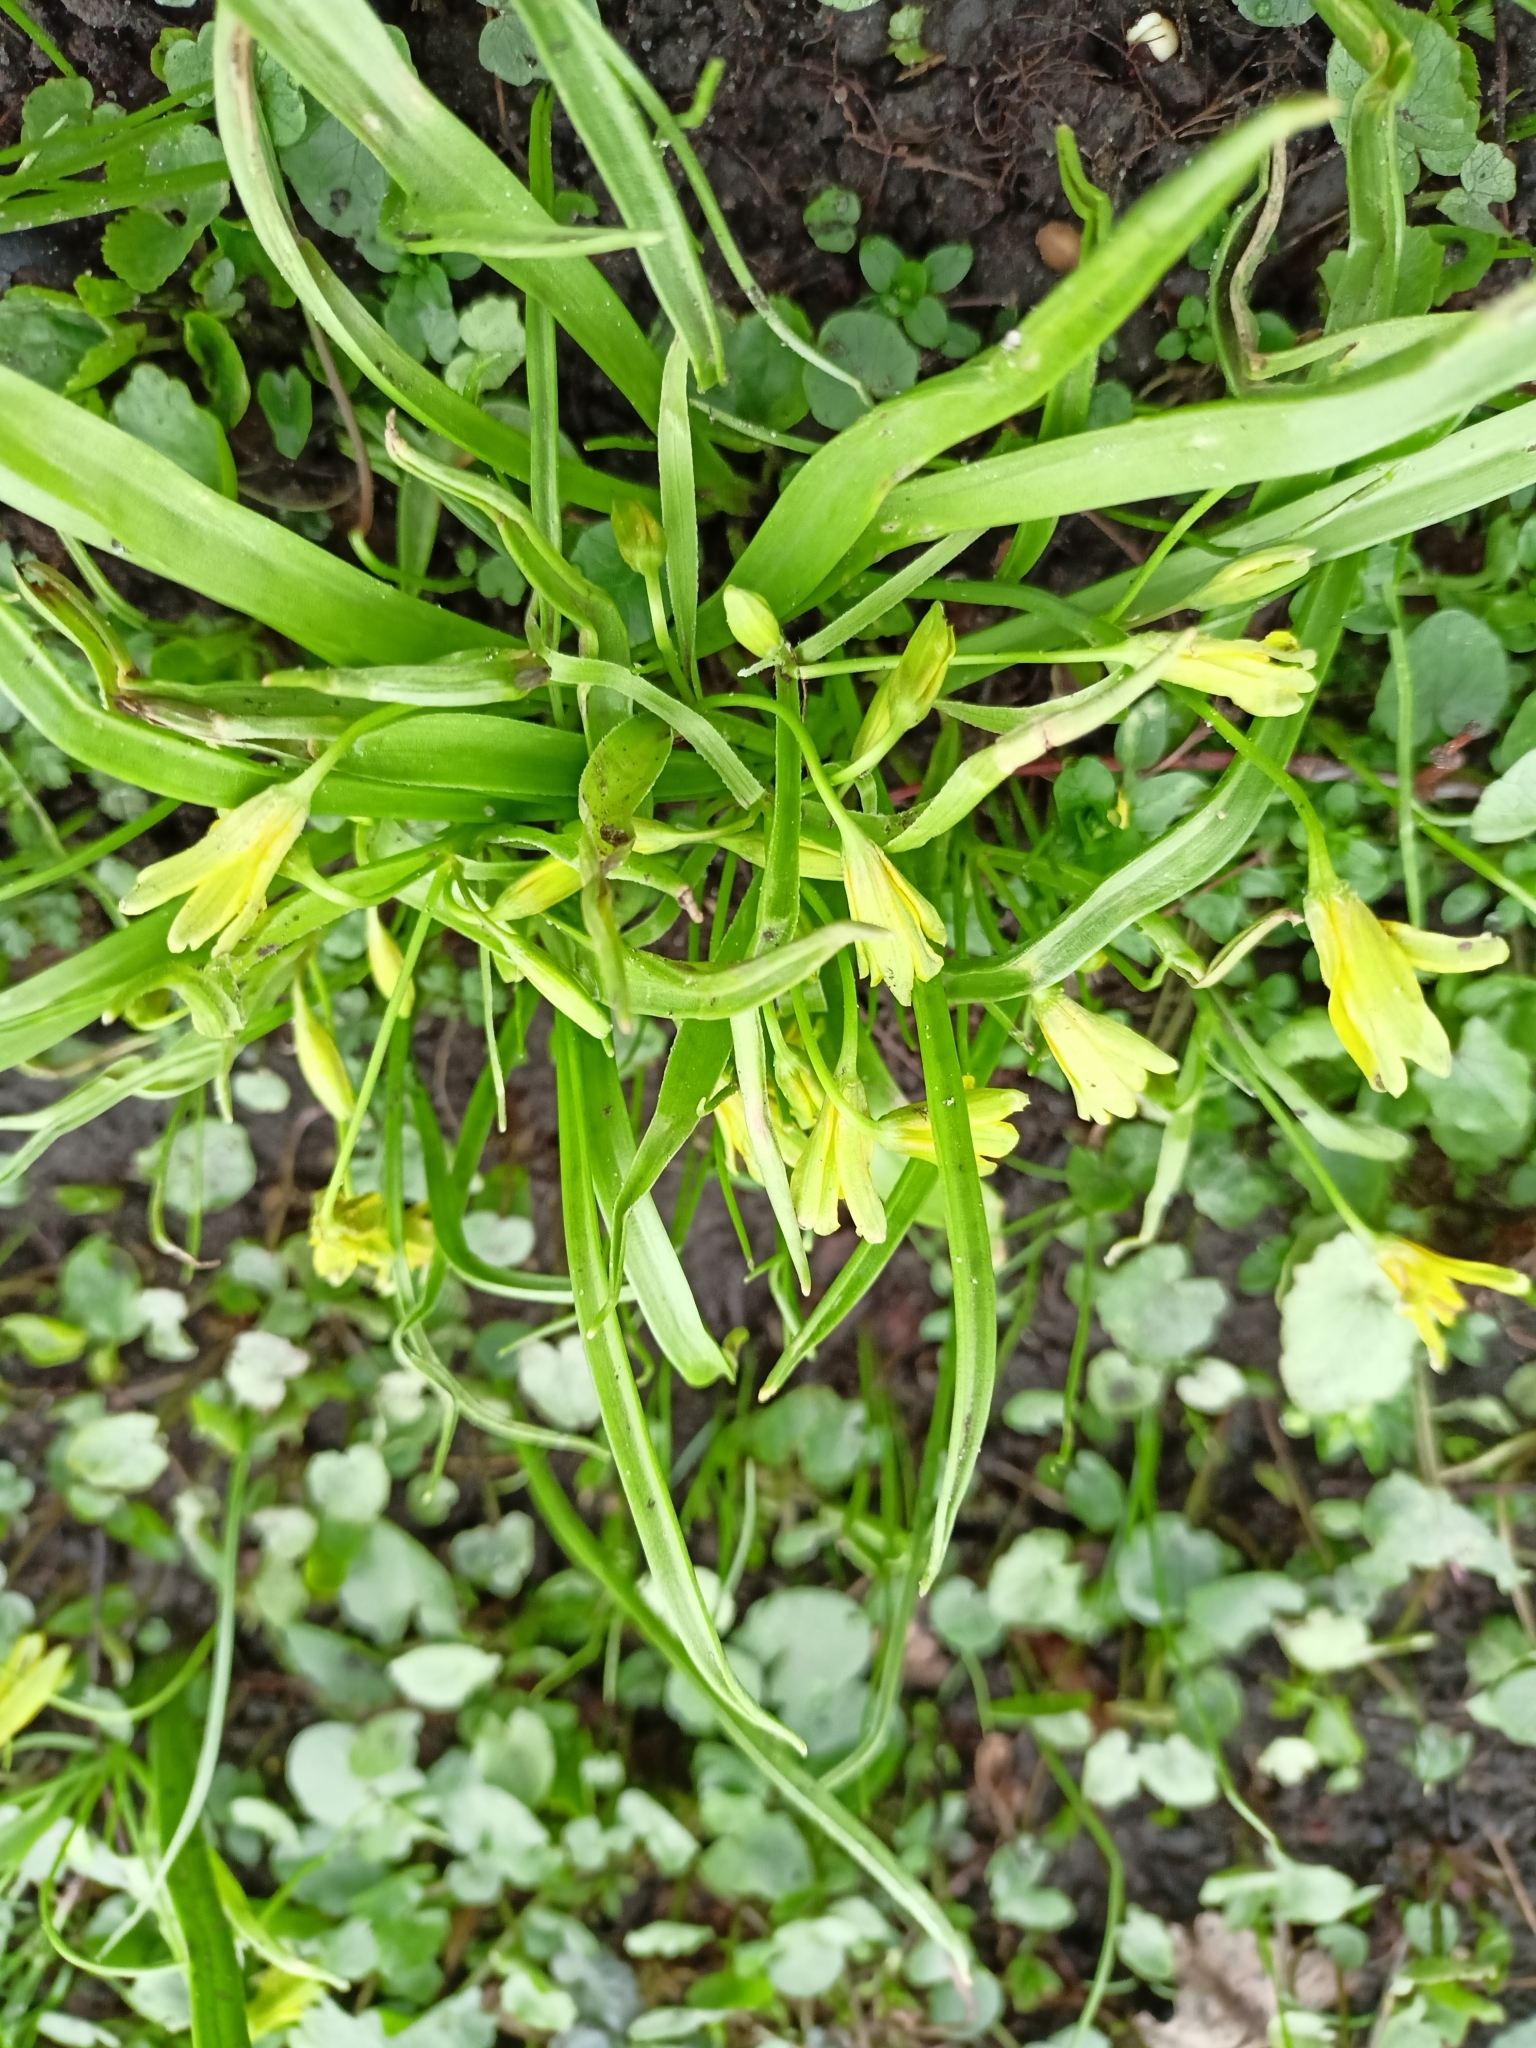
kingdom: Plantae
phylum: Tracheophyta
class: Liliopsida
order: Liliales
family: Liliaceae
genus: Gagea
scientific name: Gagea lutea
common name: Yellow star-of-bethlehem
